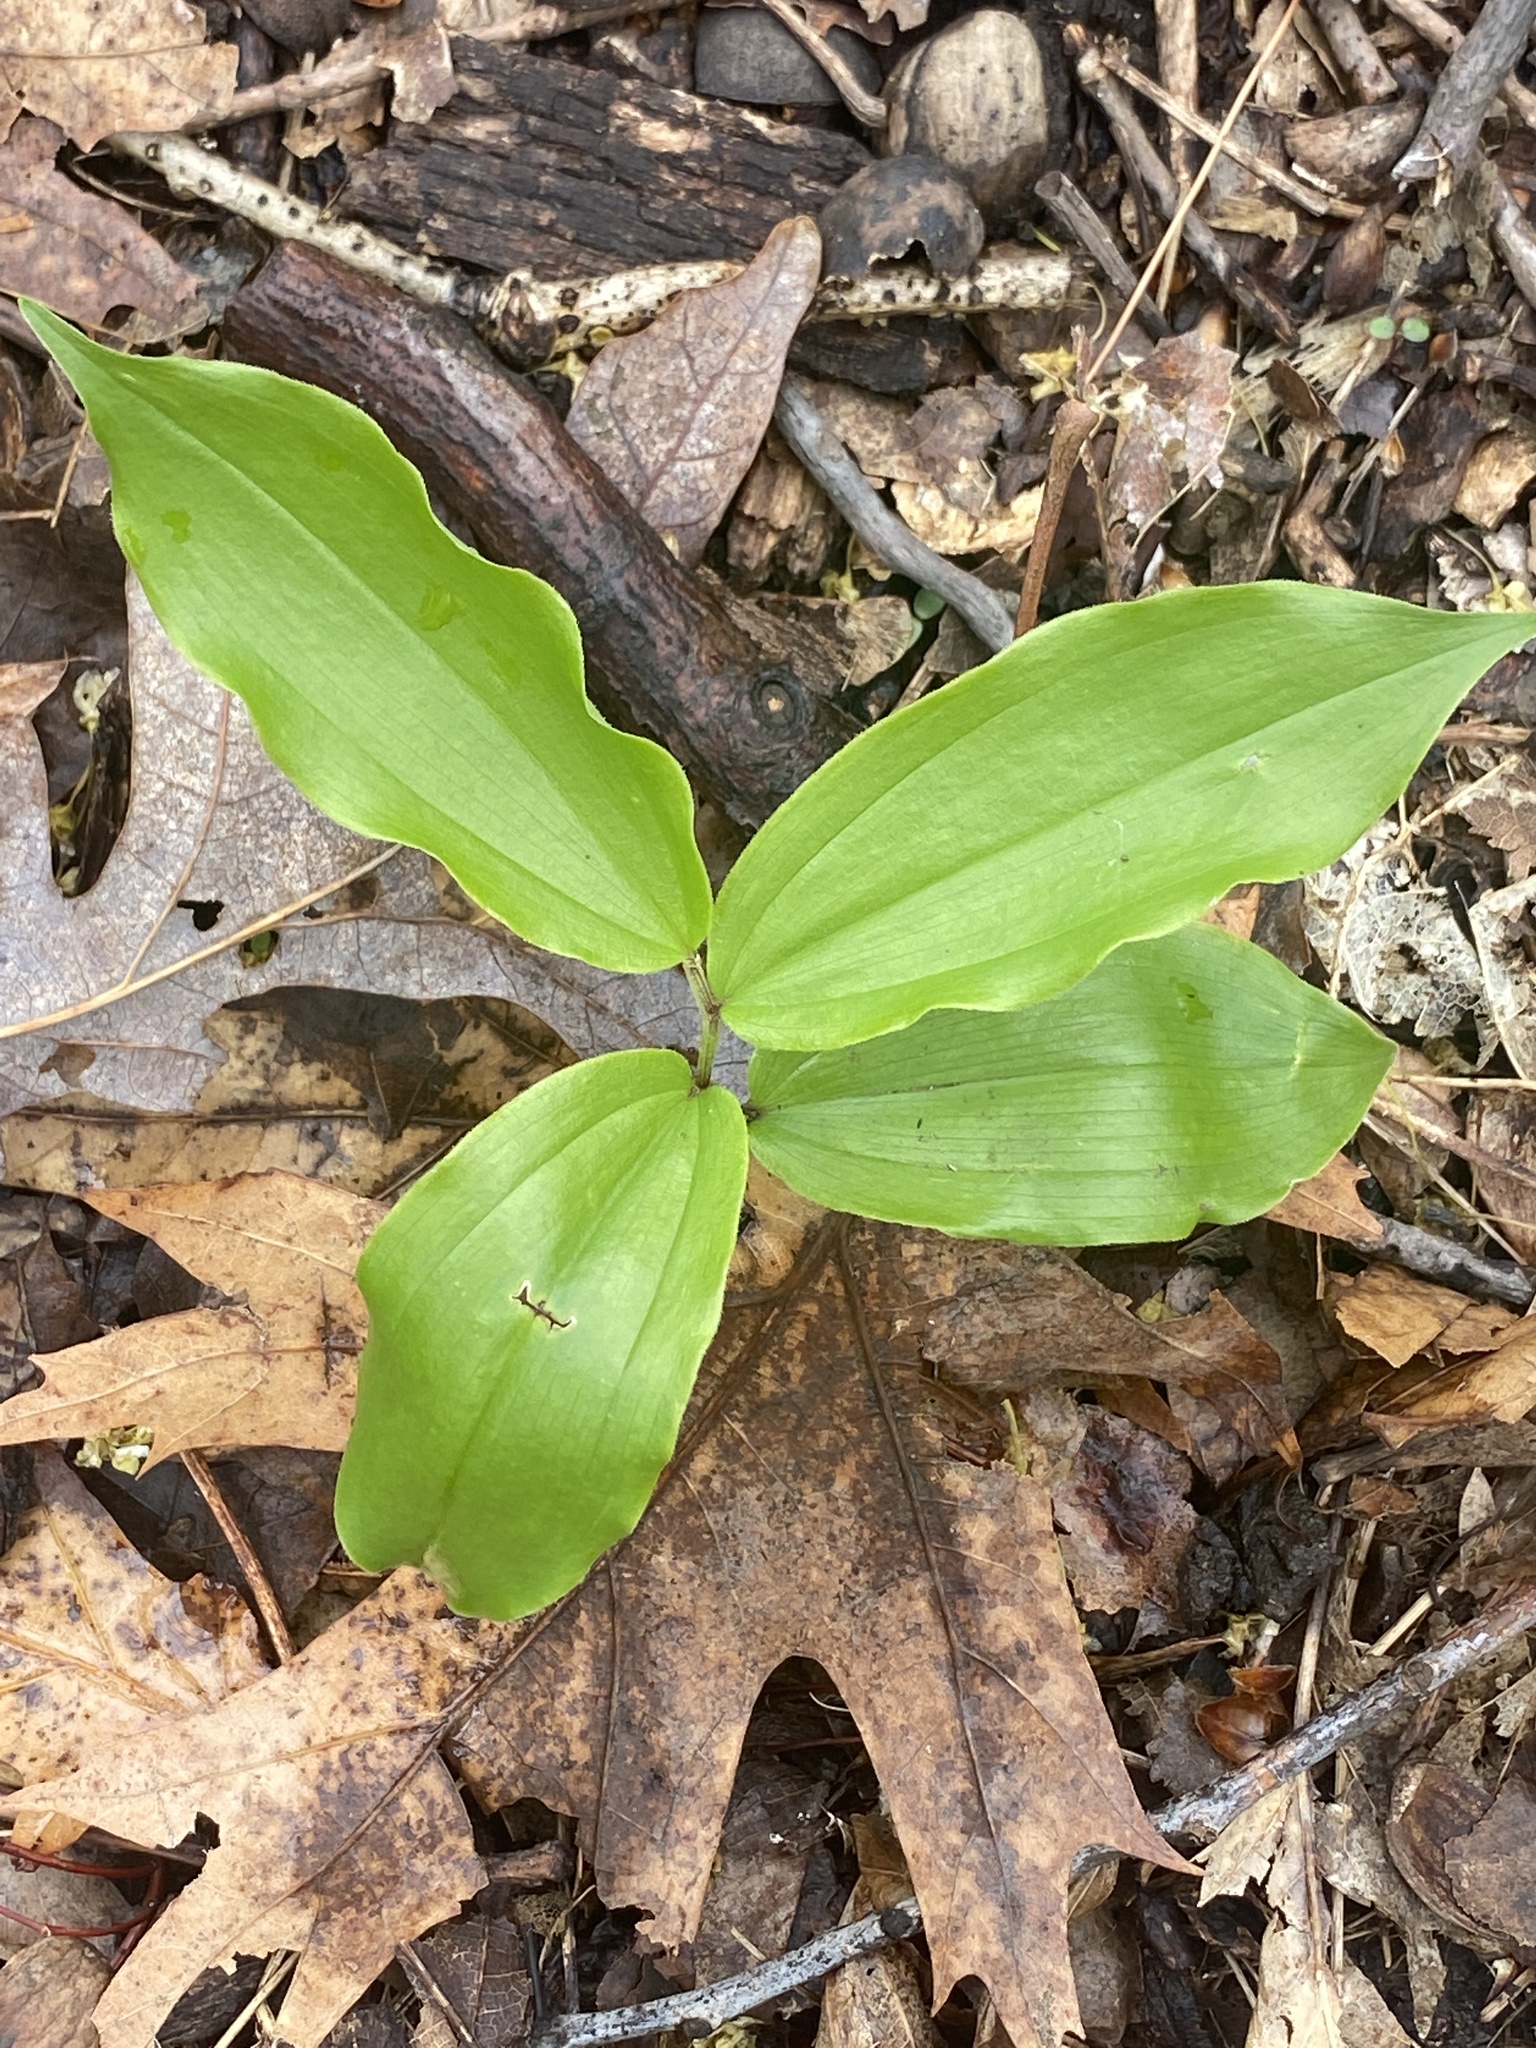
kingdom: Plantae
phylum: Tracheophyta
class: Liliopsida
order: Asparagales
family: Asparagaceae
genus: Maianthemum
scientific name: Maianthemum racemosum
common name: False spikenard
